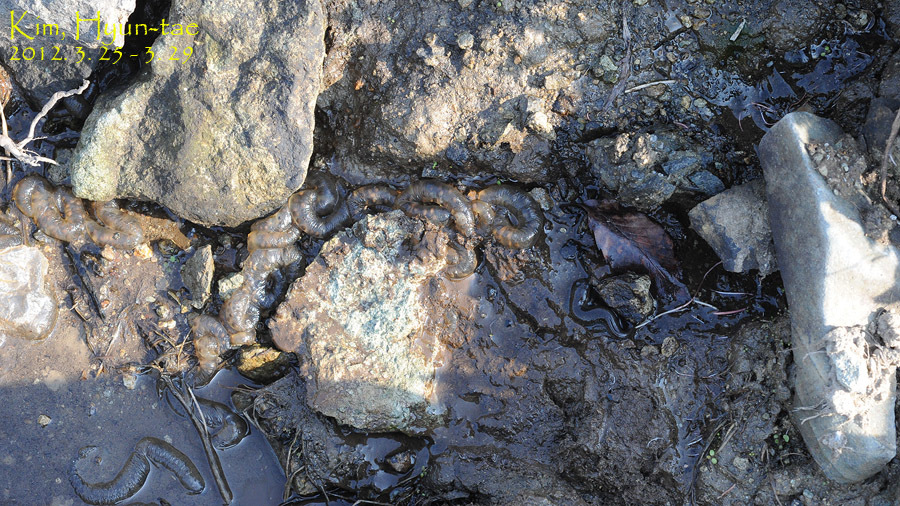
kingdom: Animalia
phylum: Chordata
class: Amphibia
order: Caudata
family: Hynobiidae
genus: Hynobius
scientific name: Hynobius unisacculus
